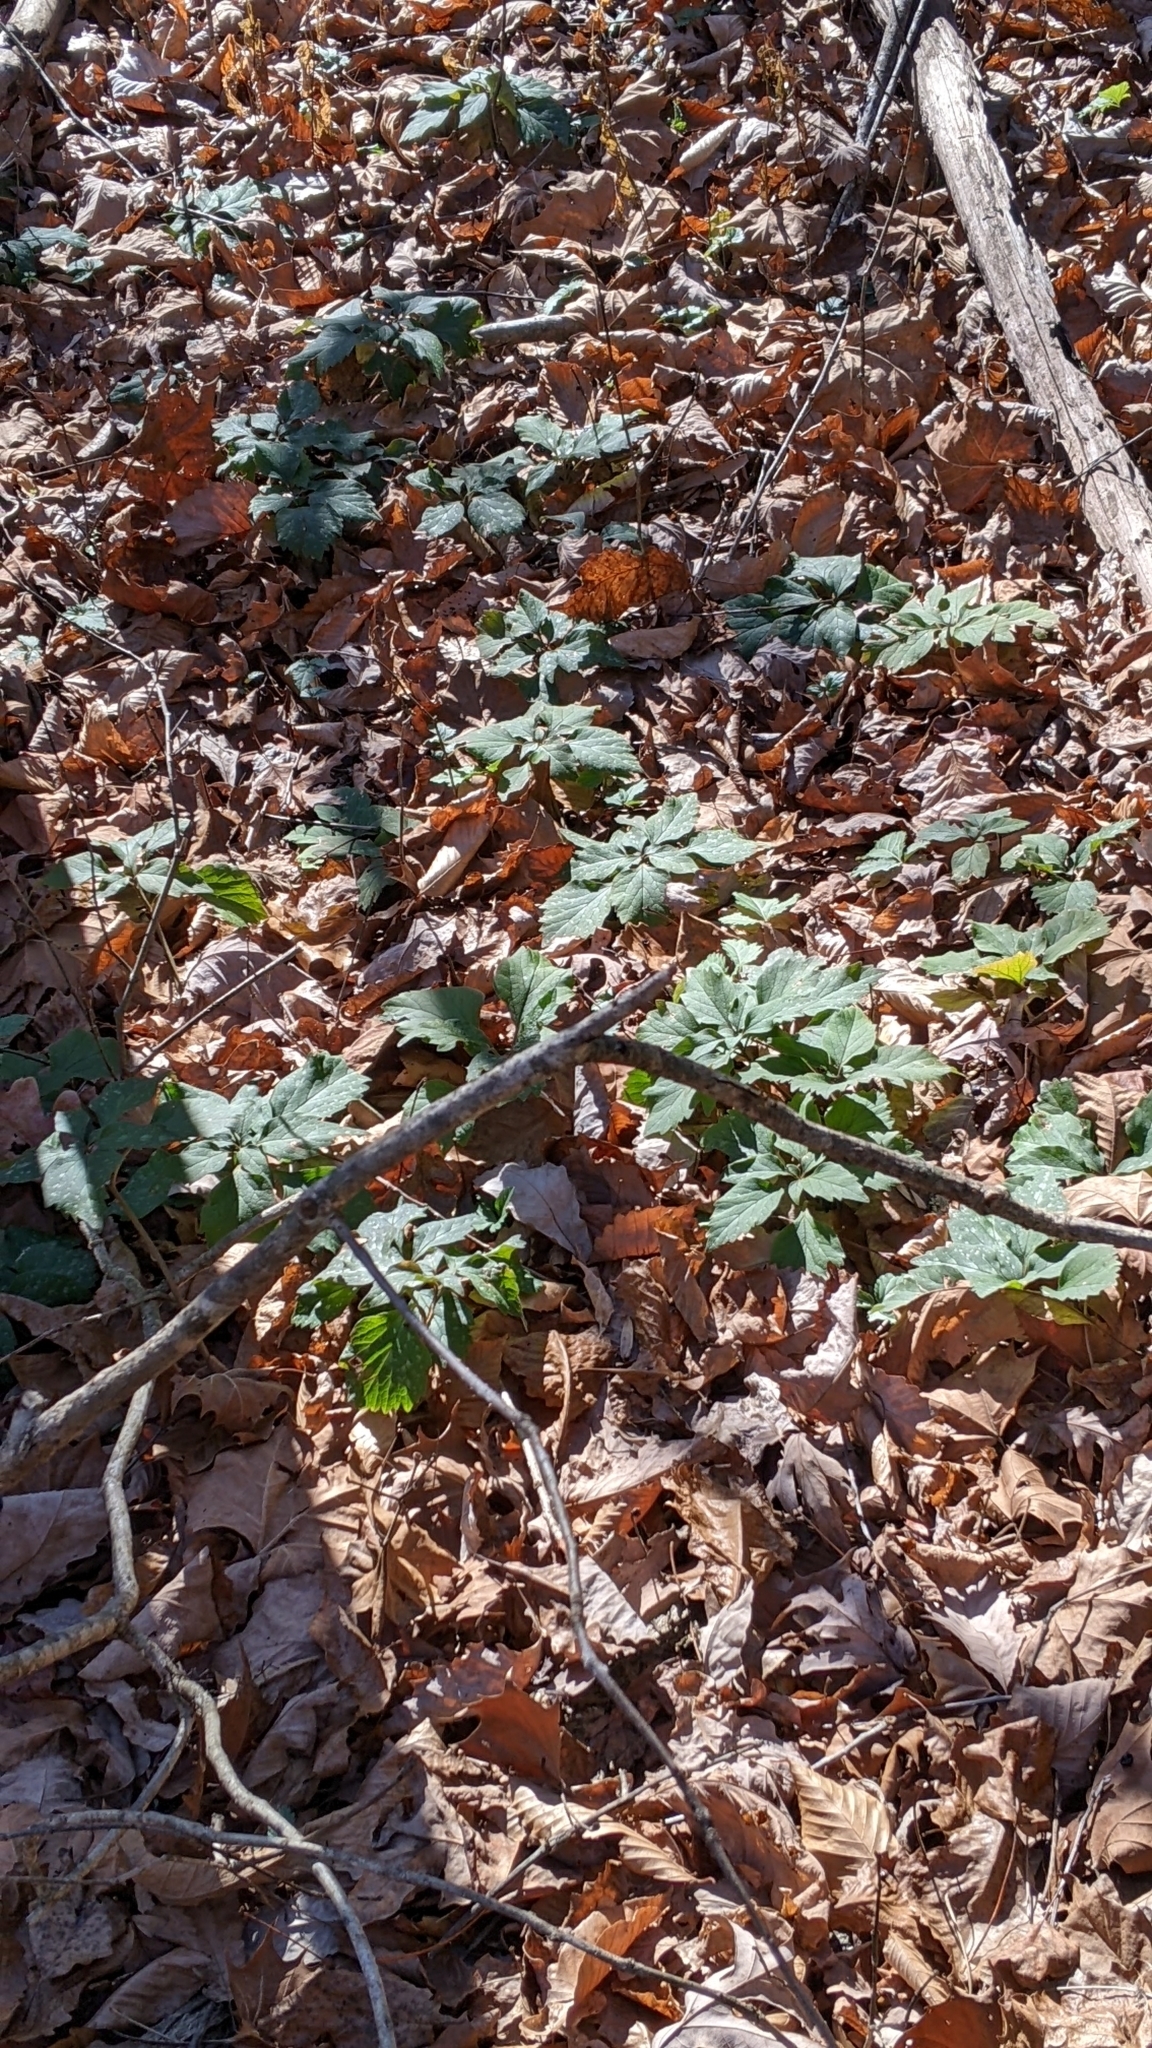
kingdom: Plantae
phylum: Tracheophyta
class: Magnoliopsida
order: Buxales
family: Buxaceae
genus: Pachysandra
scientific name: Pachysandra procumbens
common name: Mountain-spurge
